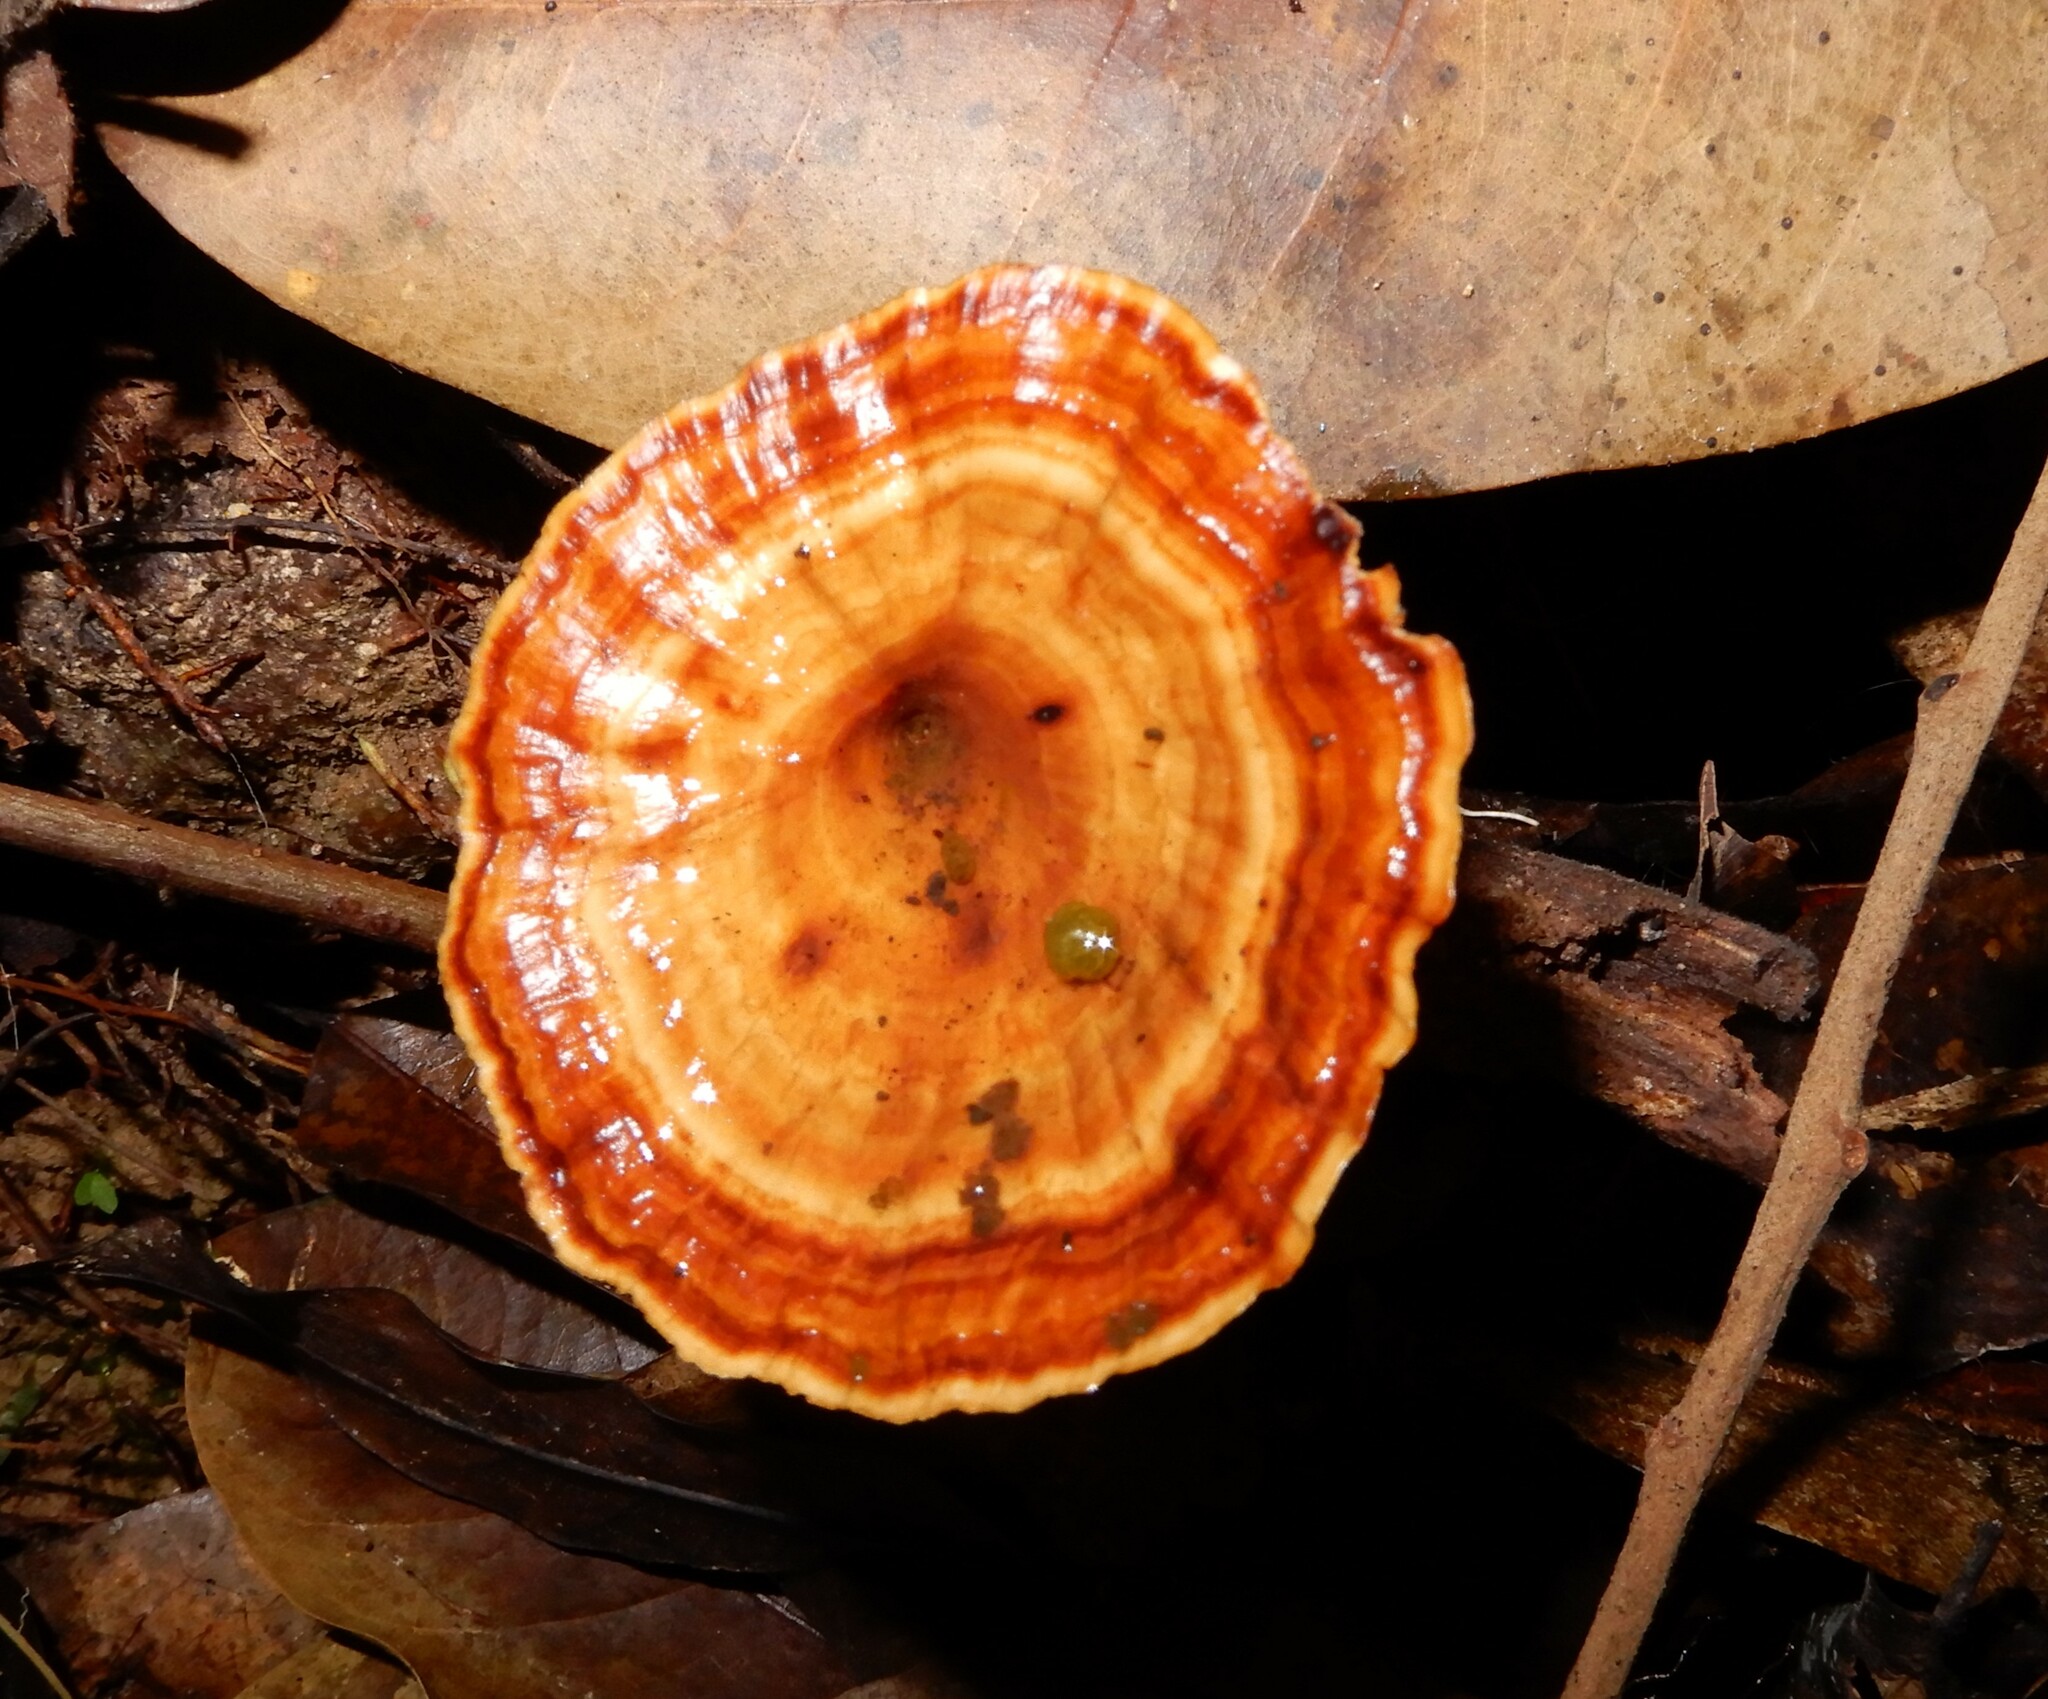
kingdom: Fungi
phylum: Basidiomycota
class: Agaricomycetes
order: Polyporales
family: Polyporaceae
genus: Microporus
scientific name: Microporus xanthopus
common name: Yellow-stemmed micropore
